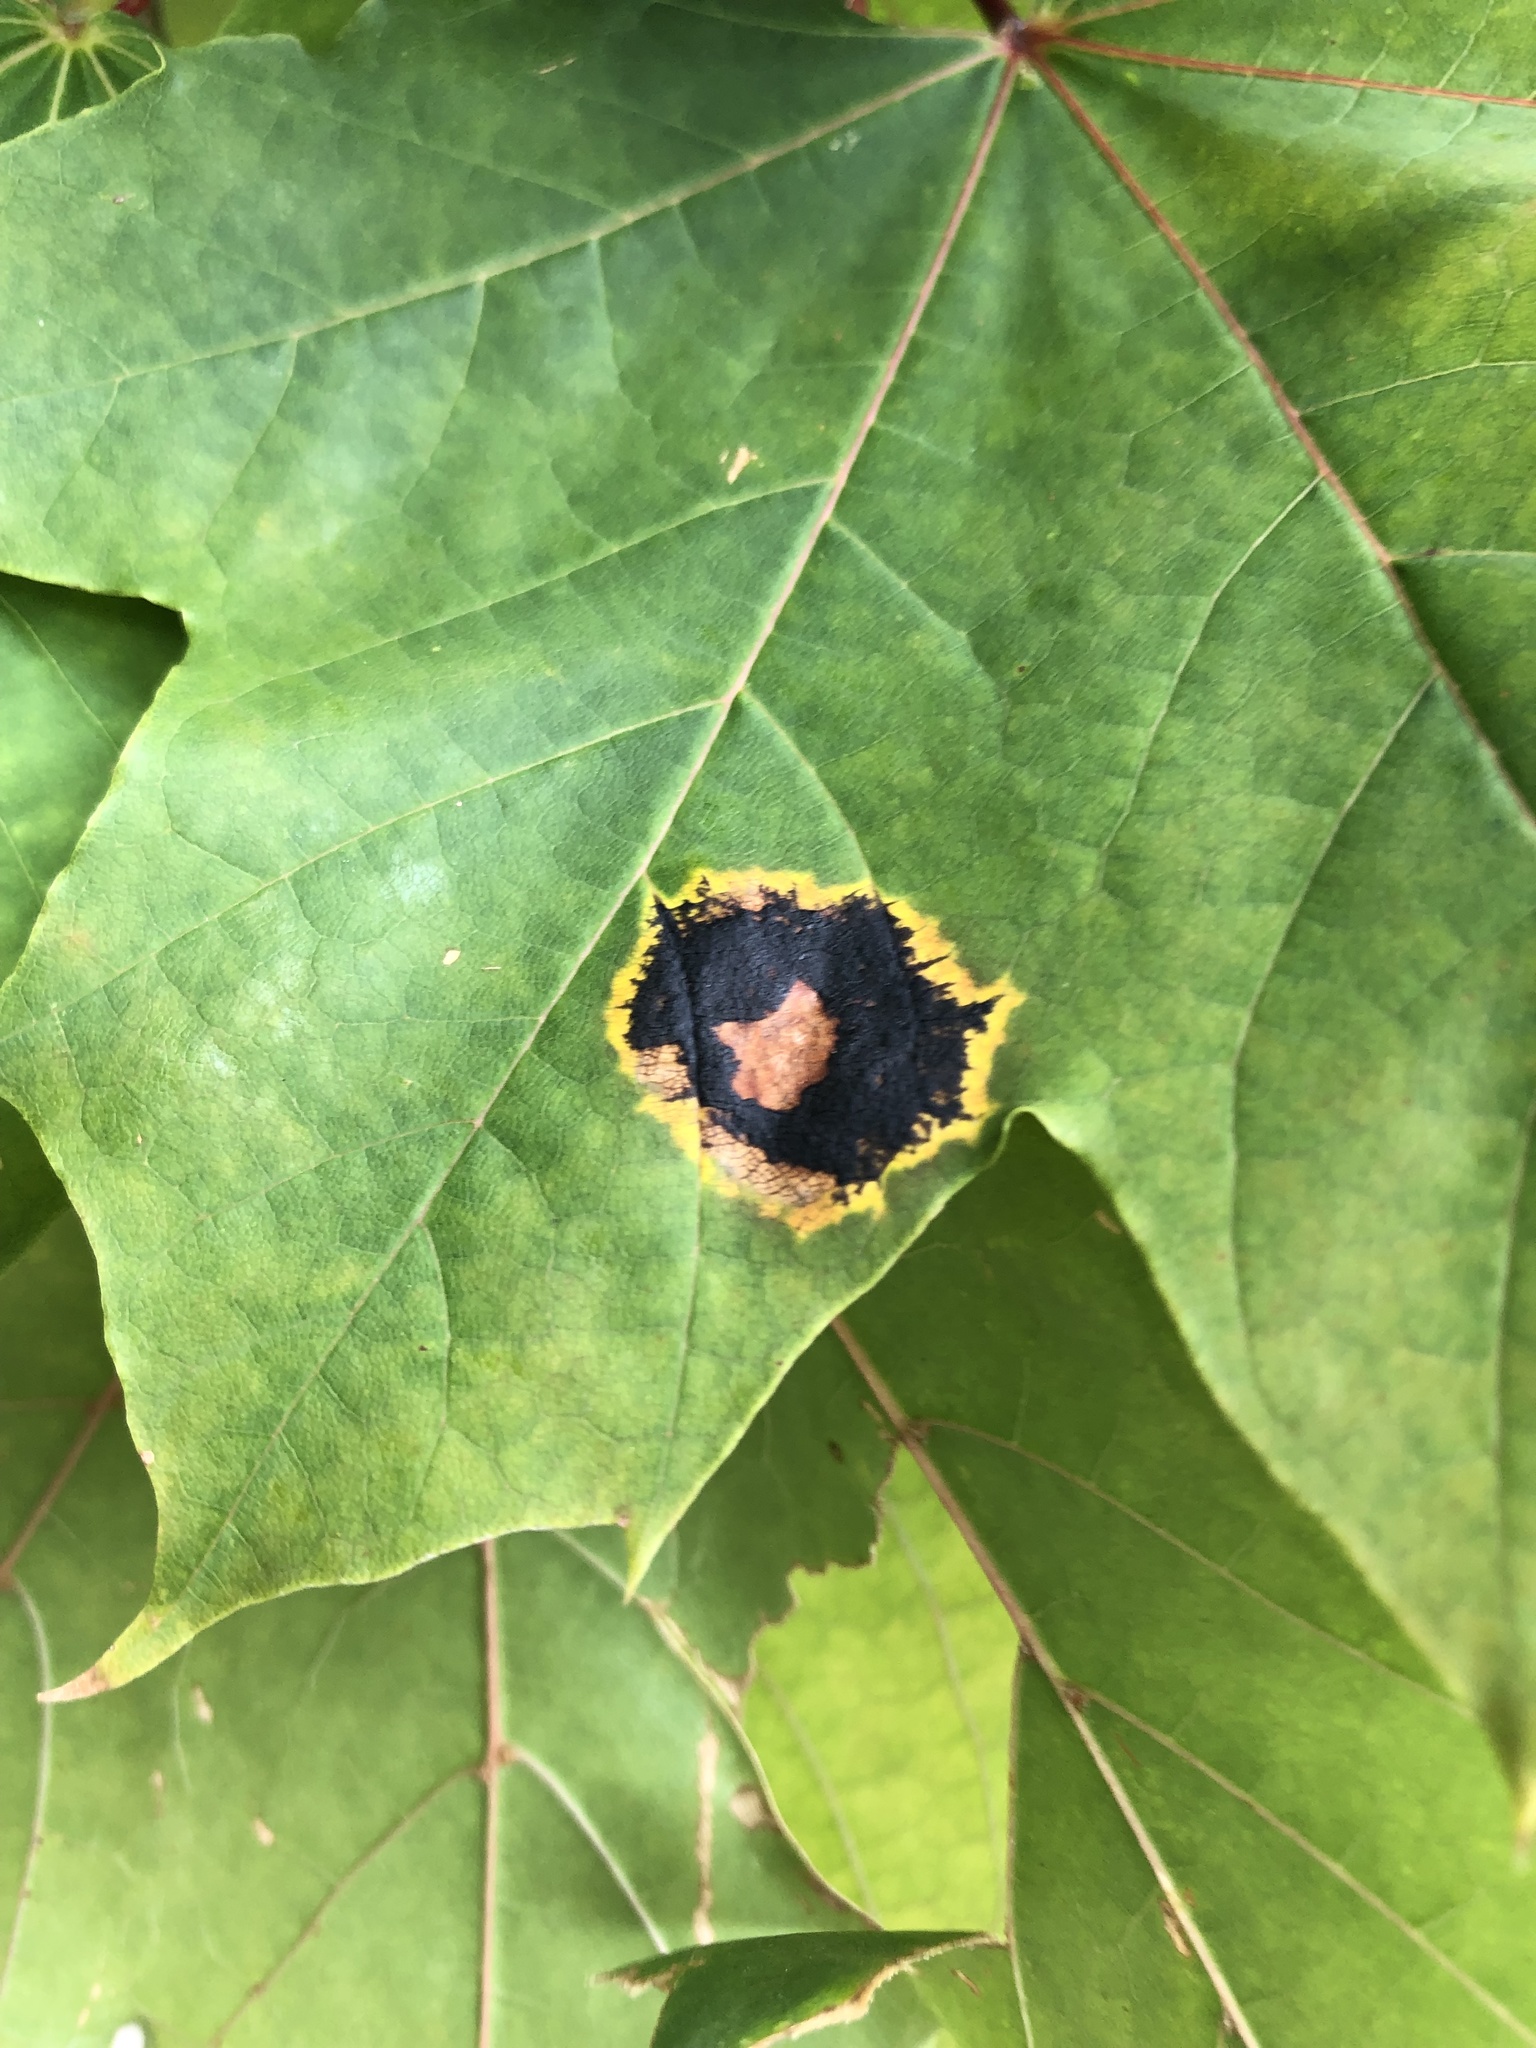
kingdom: Fungi
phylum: Ascomycota
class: Leotiomycetes
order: Rhytismatales
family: Rhytismataceae
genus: Rhytisma
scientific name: Rhytisma acerinum
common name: European tar spot
